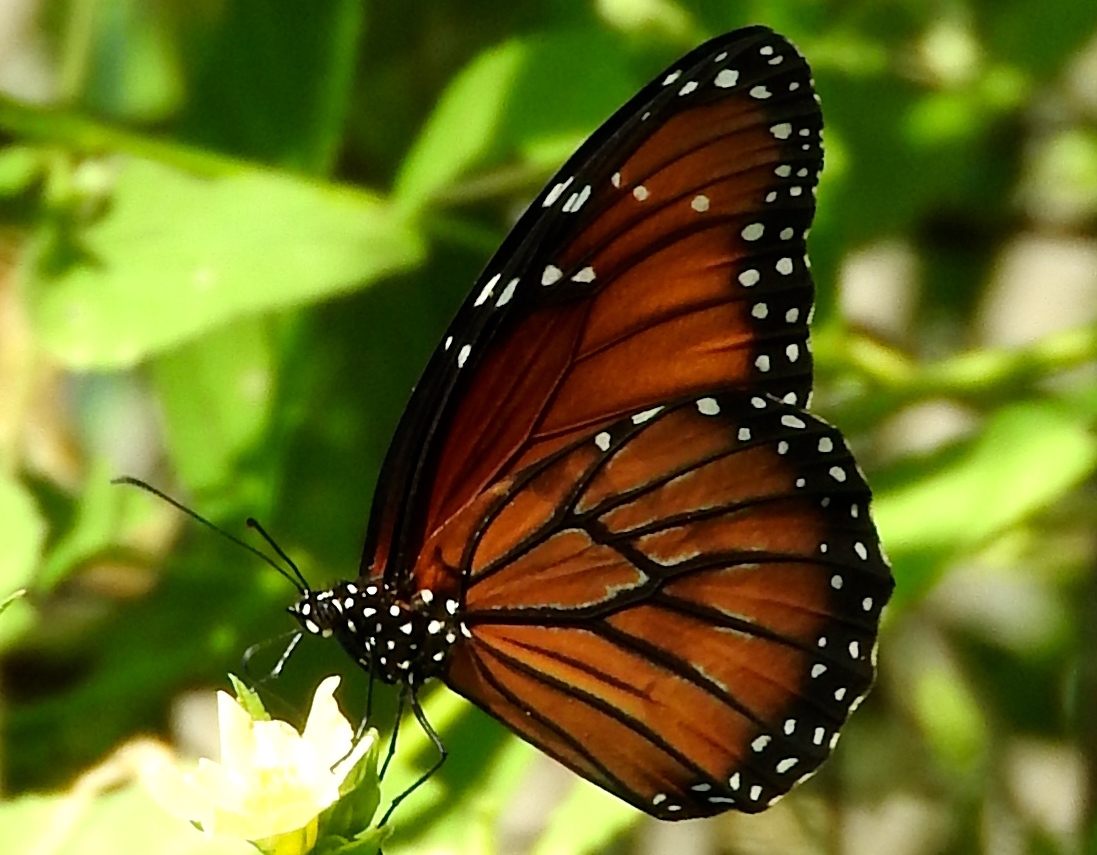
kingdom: Animalia
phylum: Arthropoda
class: Insecta
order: Lepidoptera
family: Nymphalidae
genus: Danaus
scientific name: Danaus eresimus
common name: Soldier
